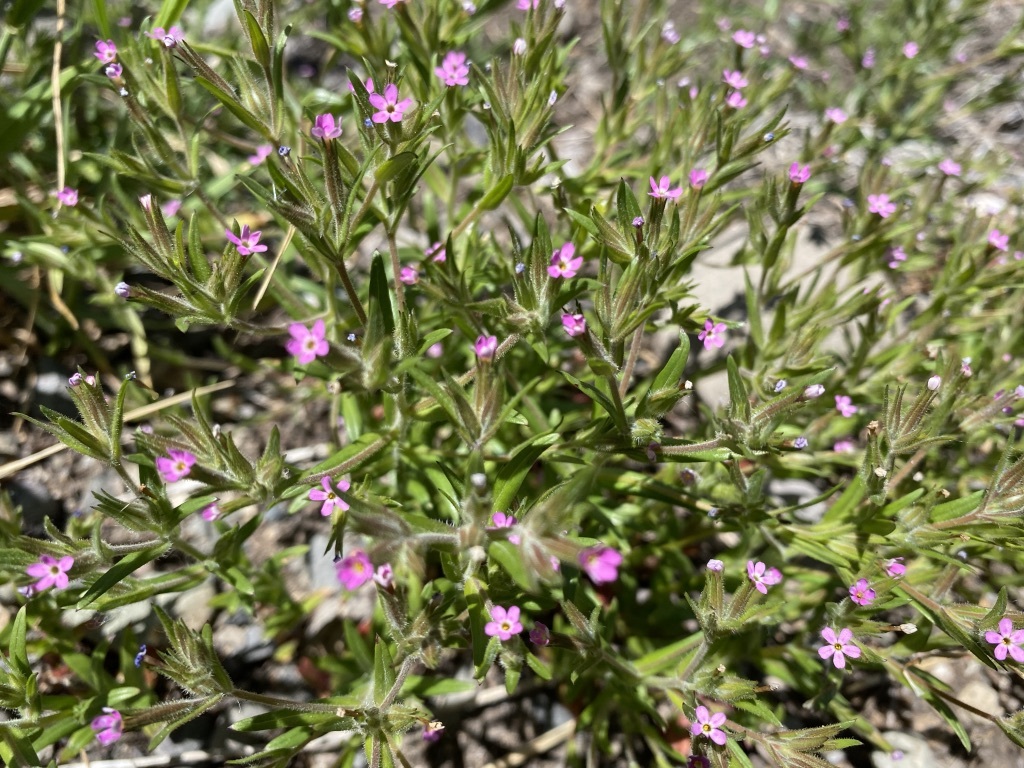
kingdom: Plantae
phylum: Tracheophyta
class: Magnoliopsida
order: Ericales
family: Polemoniaceae
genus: Phlox
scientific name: Phlox gracilis
